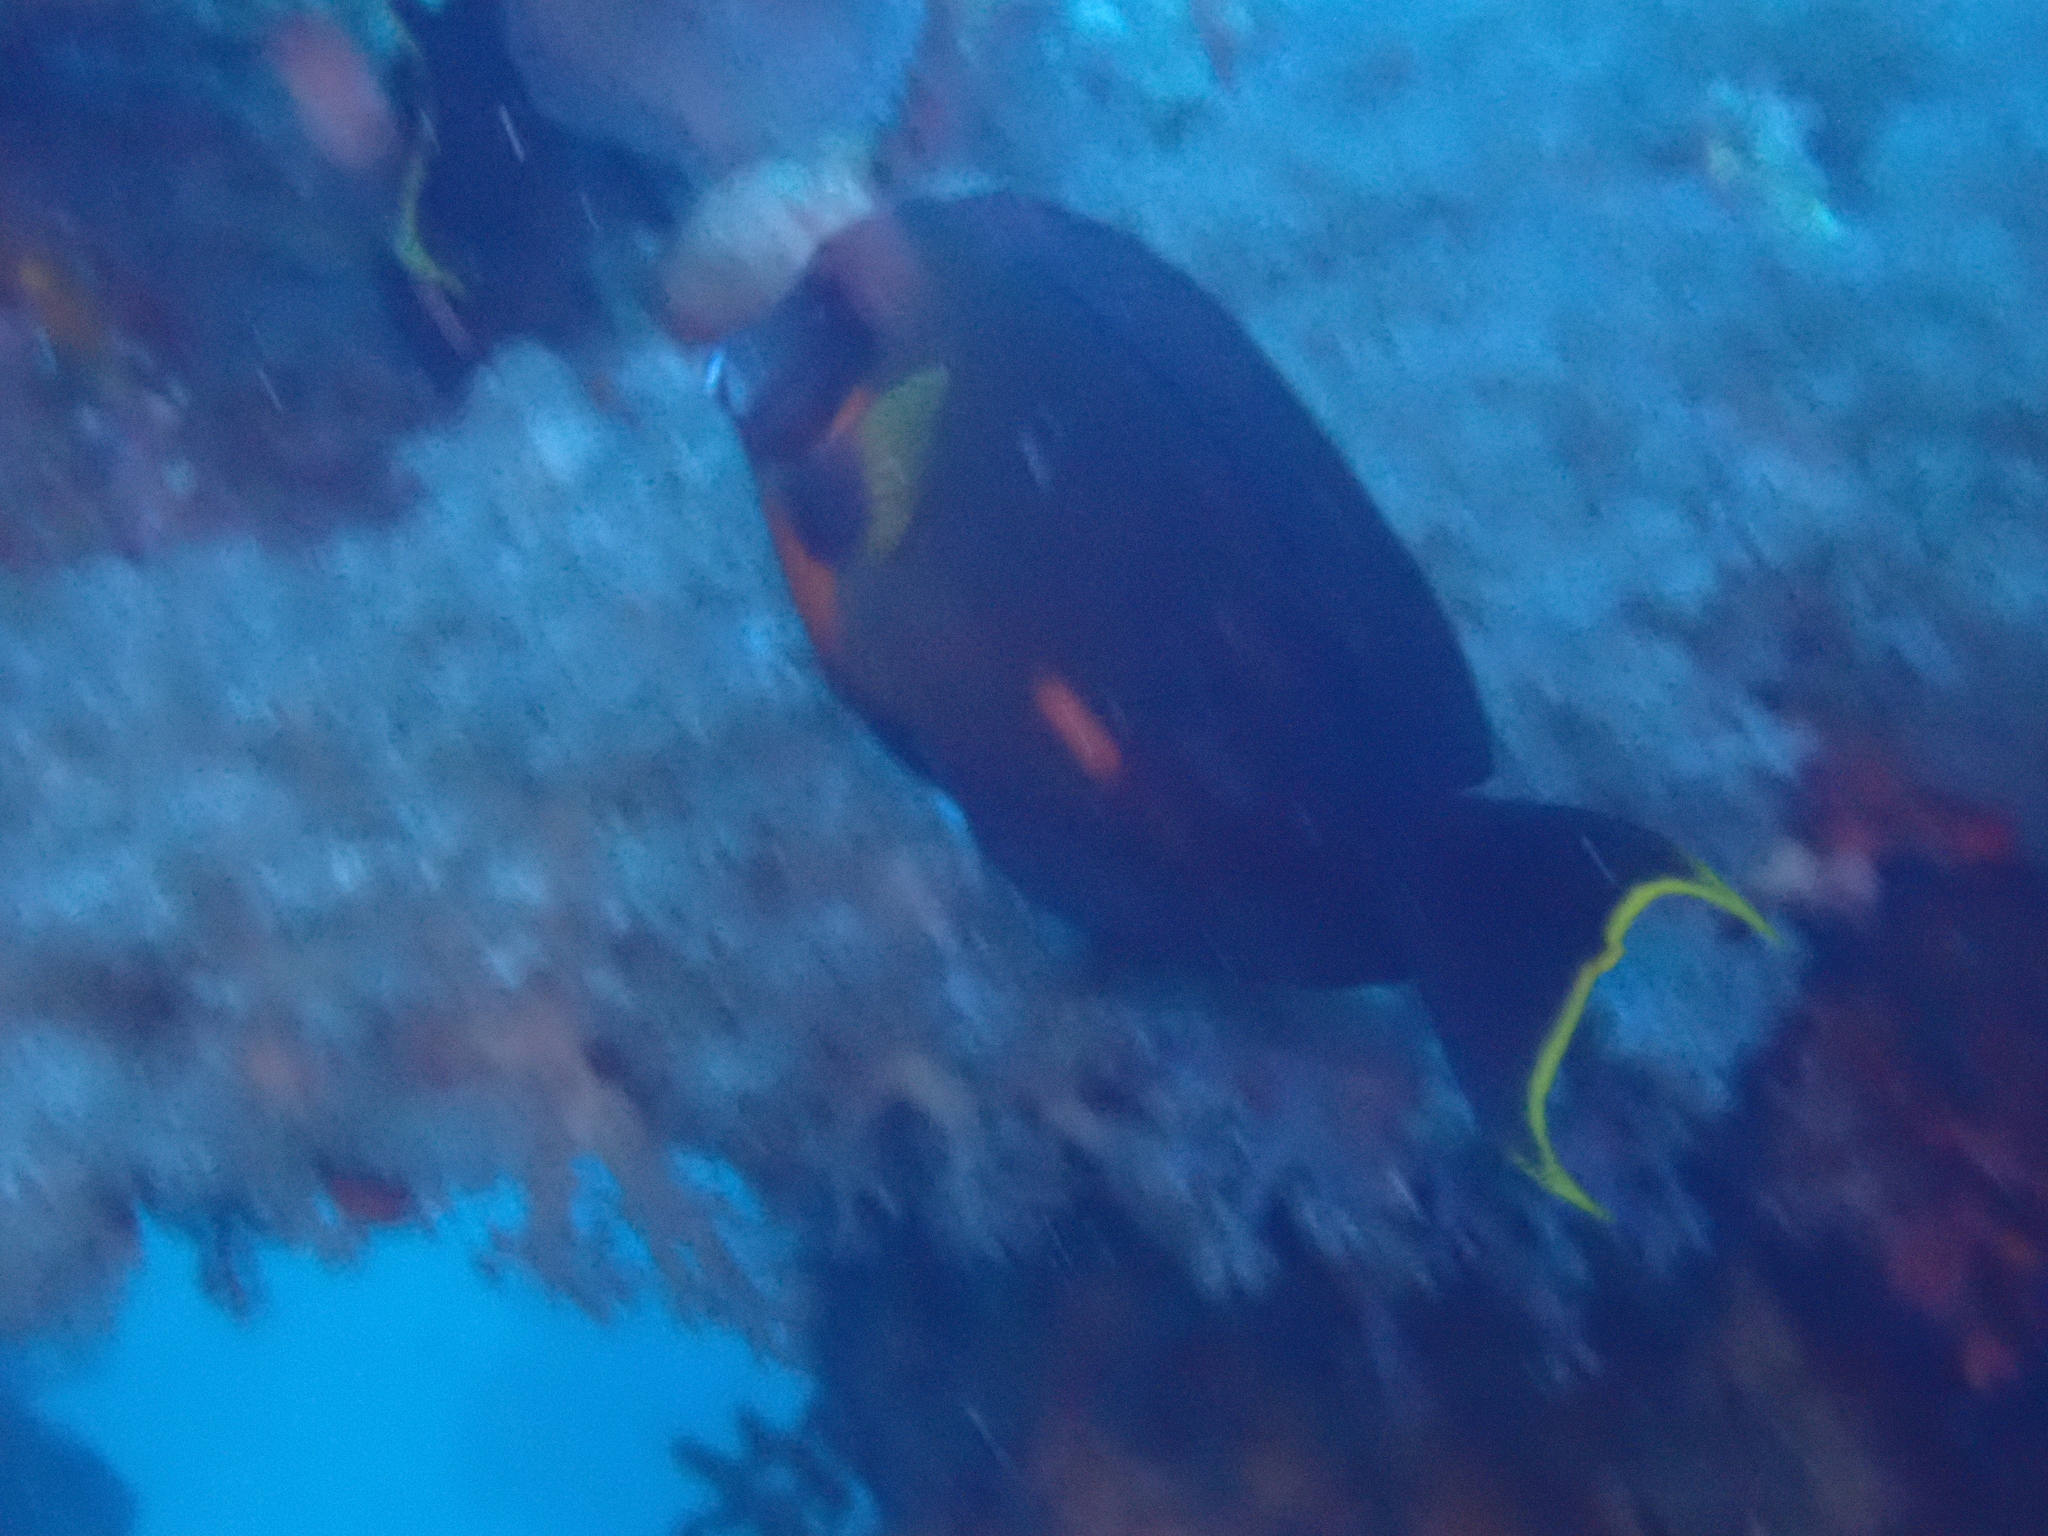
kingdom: Animalia
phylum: Chordata
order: Perciformes
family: Acanthuridae
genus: Acanthurus
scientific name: Acanthurus pyroferus
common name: Chocolate surgeonfish
